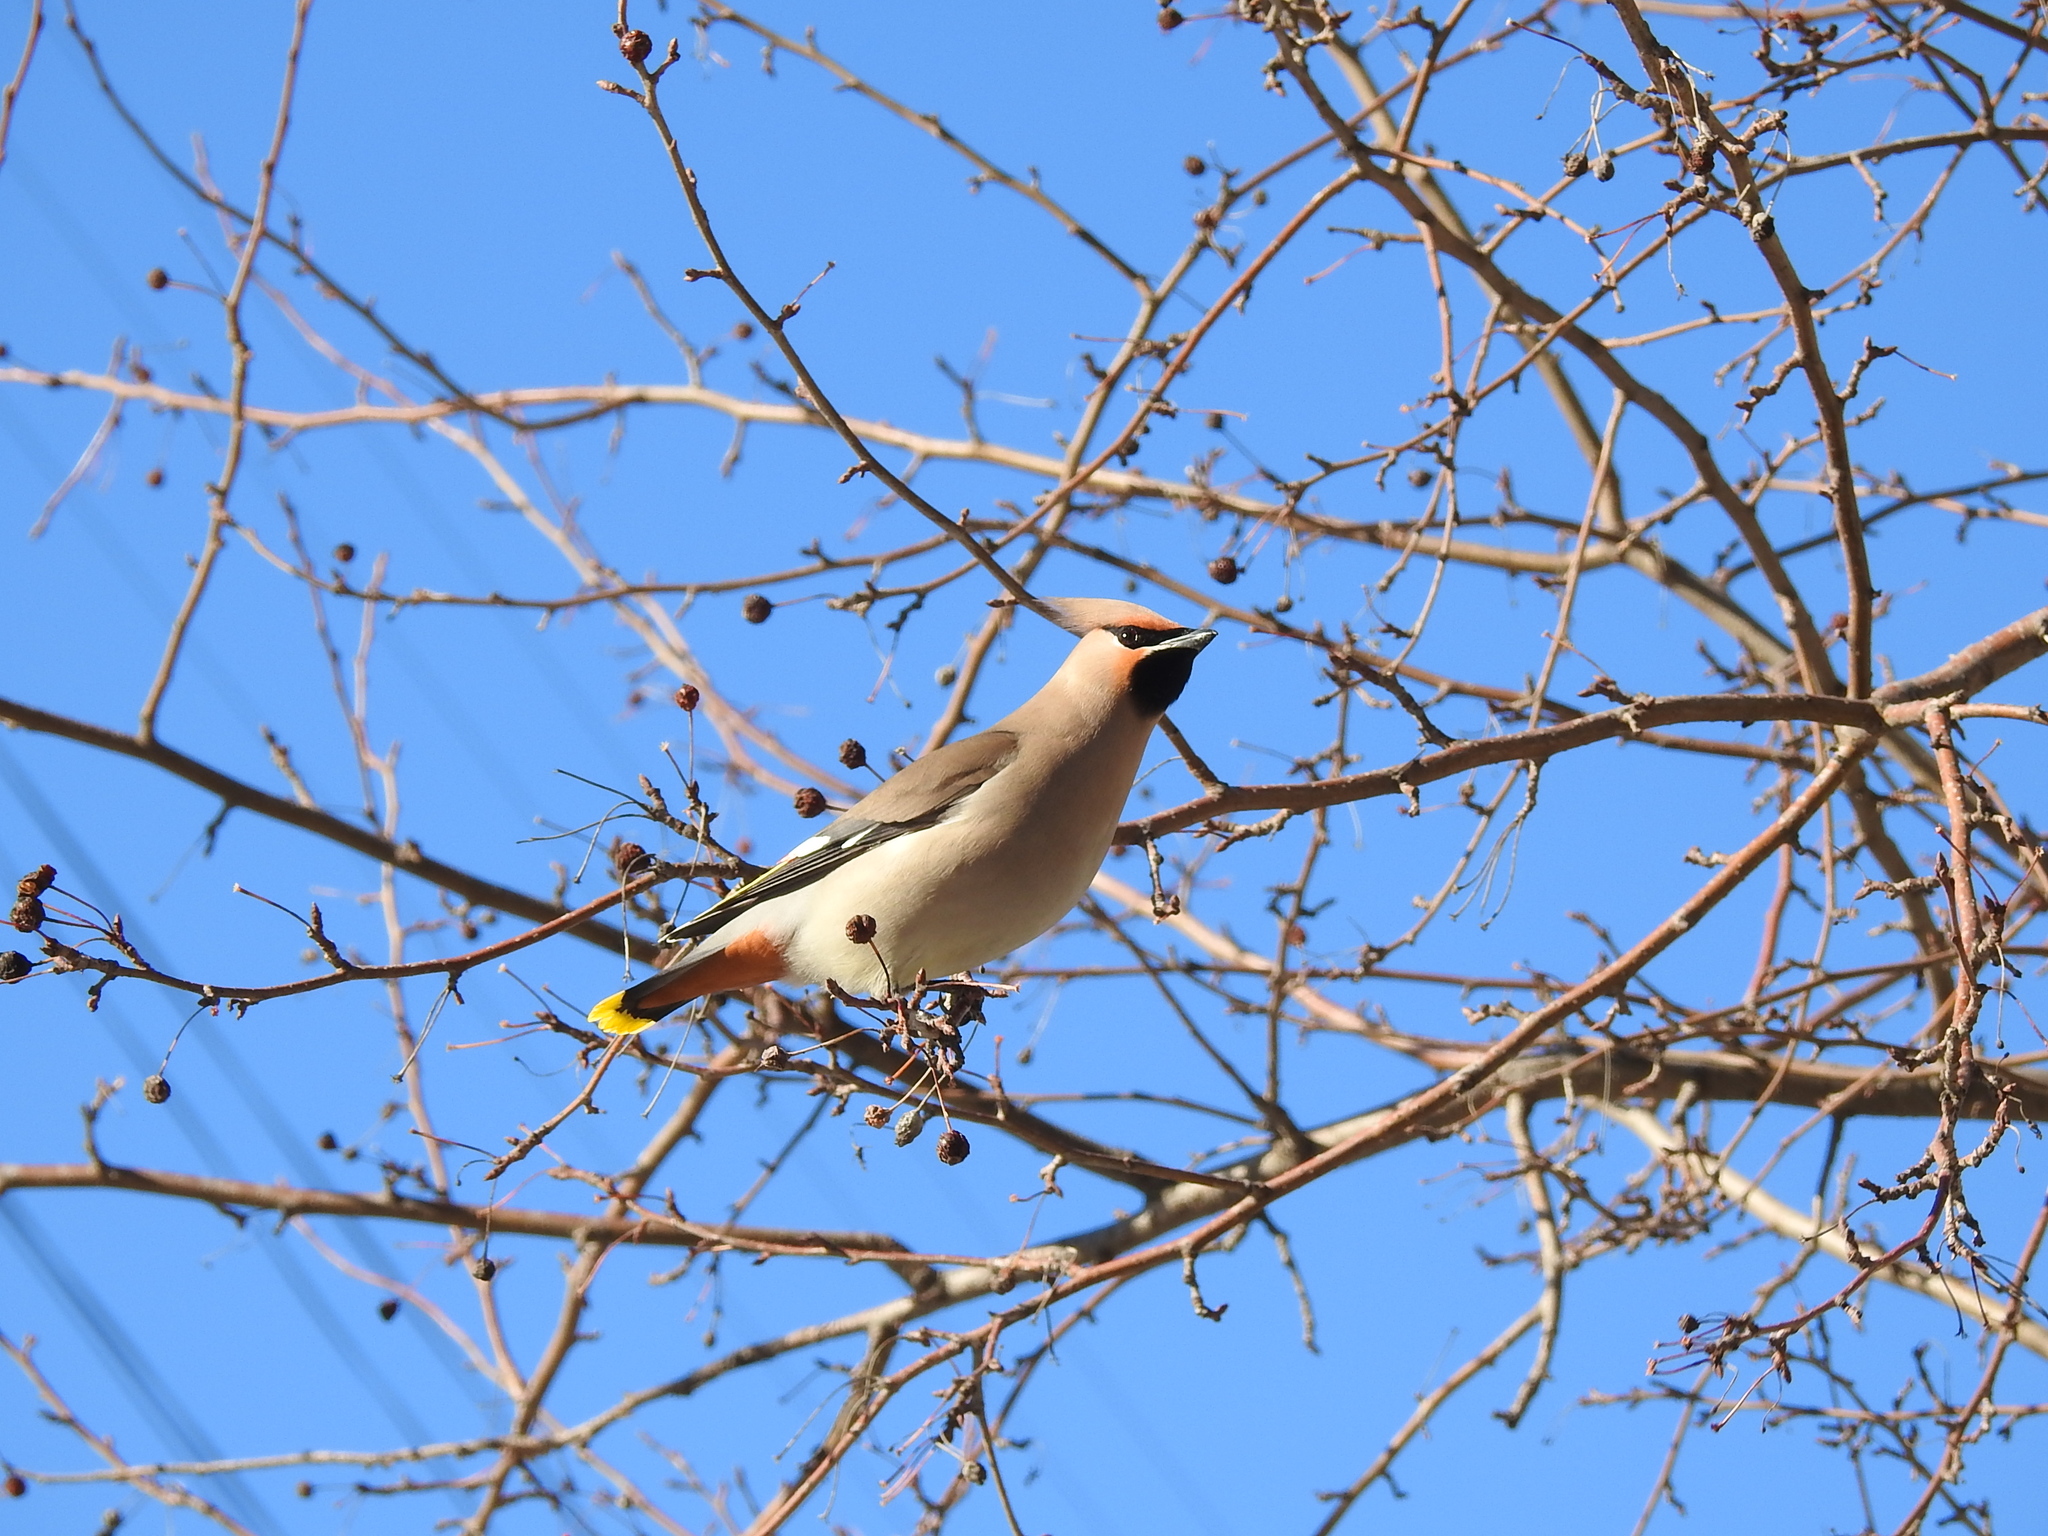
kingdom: Animalia
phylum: Chordata
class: Aves
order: Passeriformes
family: Bombycillidae
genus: Bombycilla
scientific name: Bombycilla garrulus
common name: Bohemian waxwing
